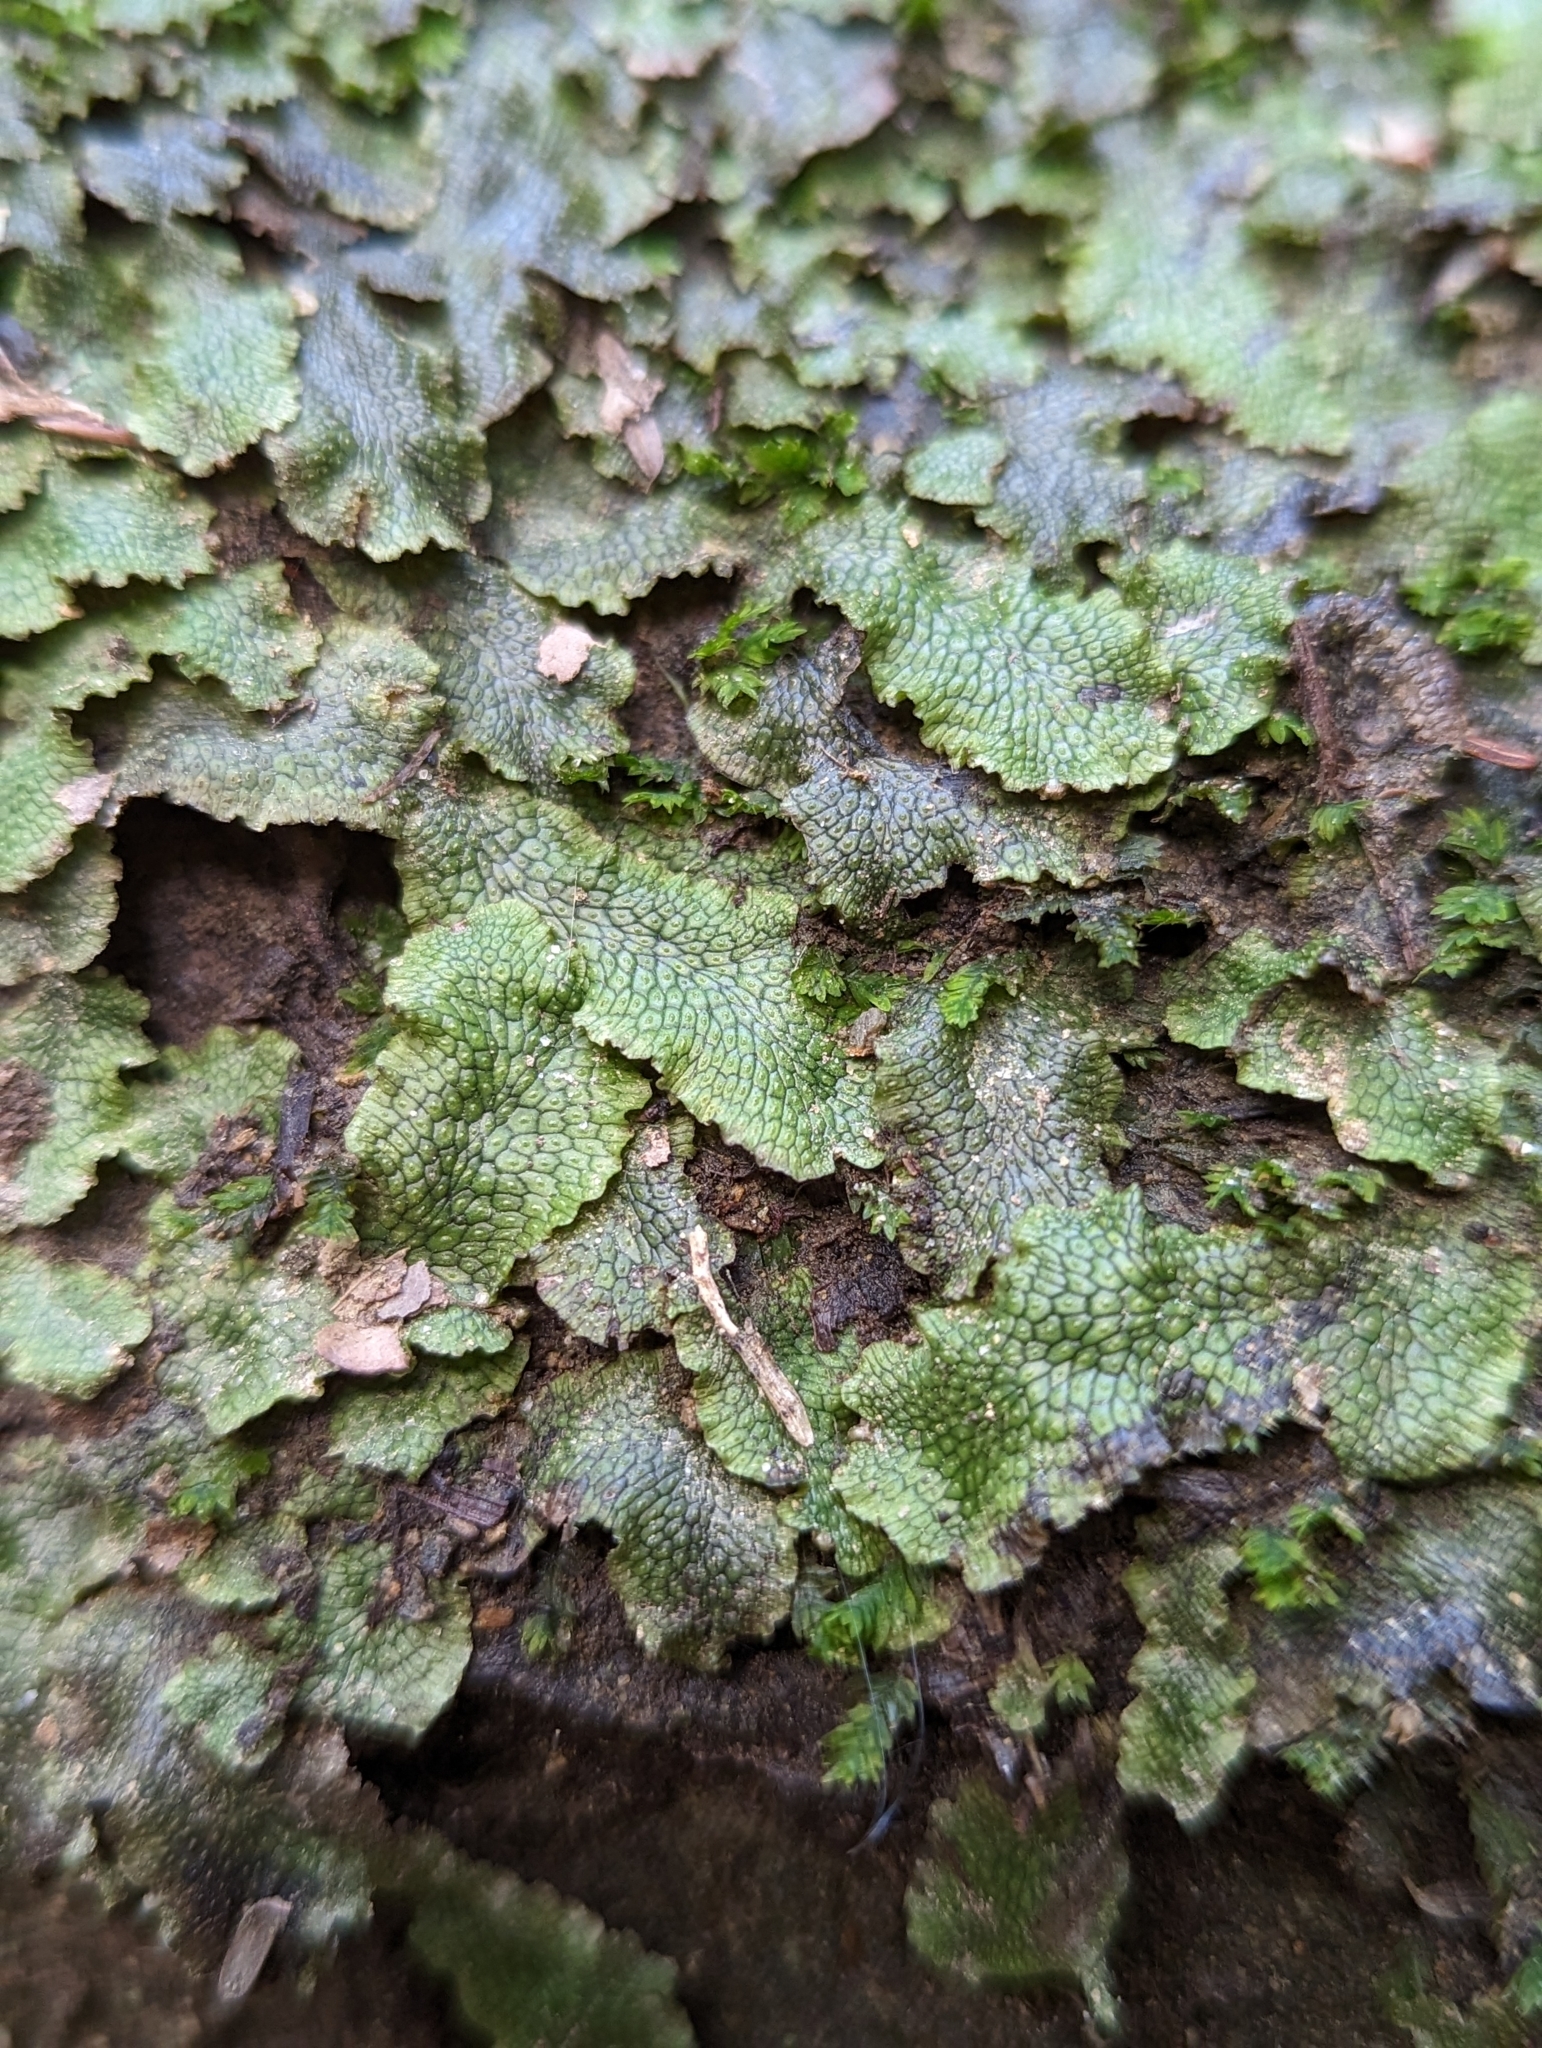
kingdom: Plantae
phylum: Marchantiophyta
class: Marchantiopsida
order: Marchantiales
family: Conocephalaceae
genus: Conocephalum
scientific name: Conocephalum salebrosum
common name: Cat-tongue liverwort
